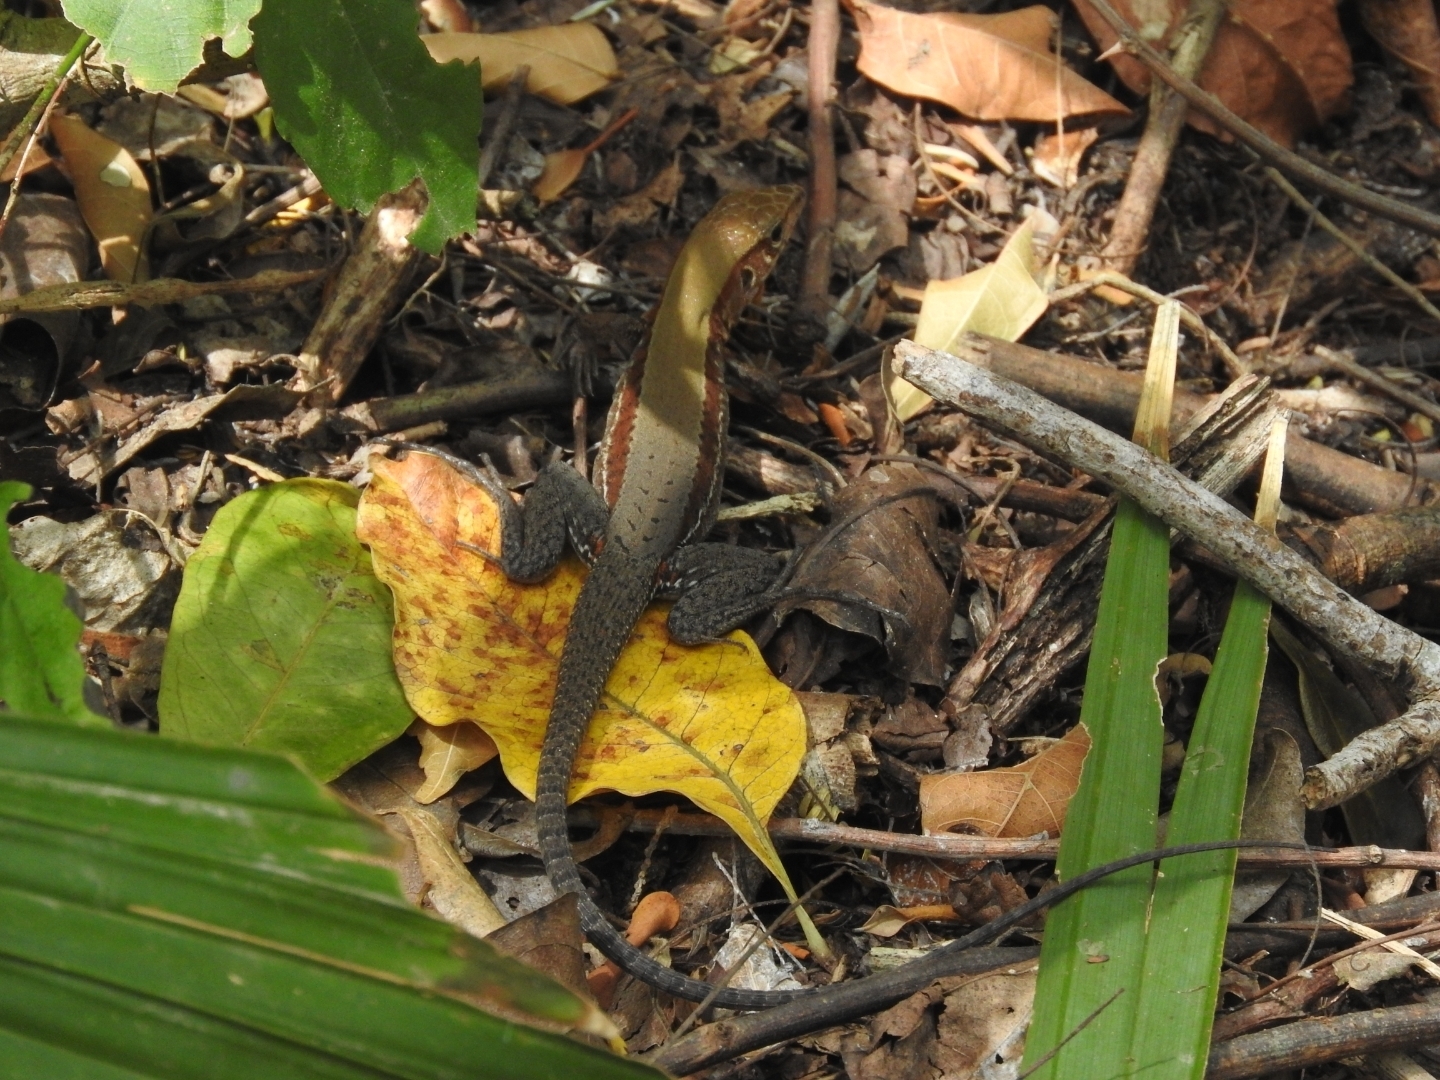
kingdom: Animalia
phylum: Chordata
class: Squamata
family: Teiidae
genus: Holcosus
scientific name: Holcosus undulatus
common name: Rainbow ameiva
